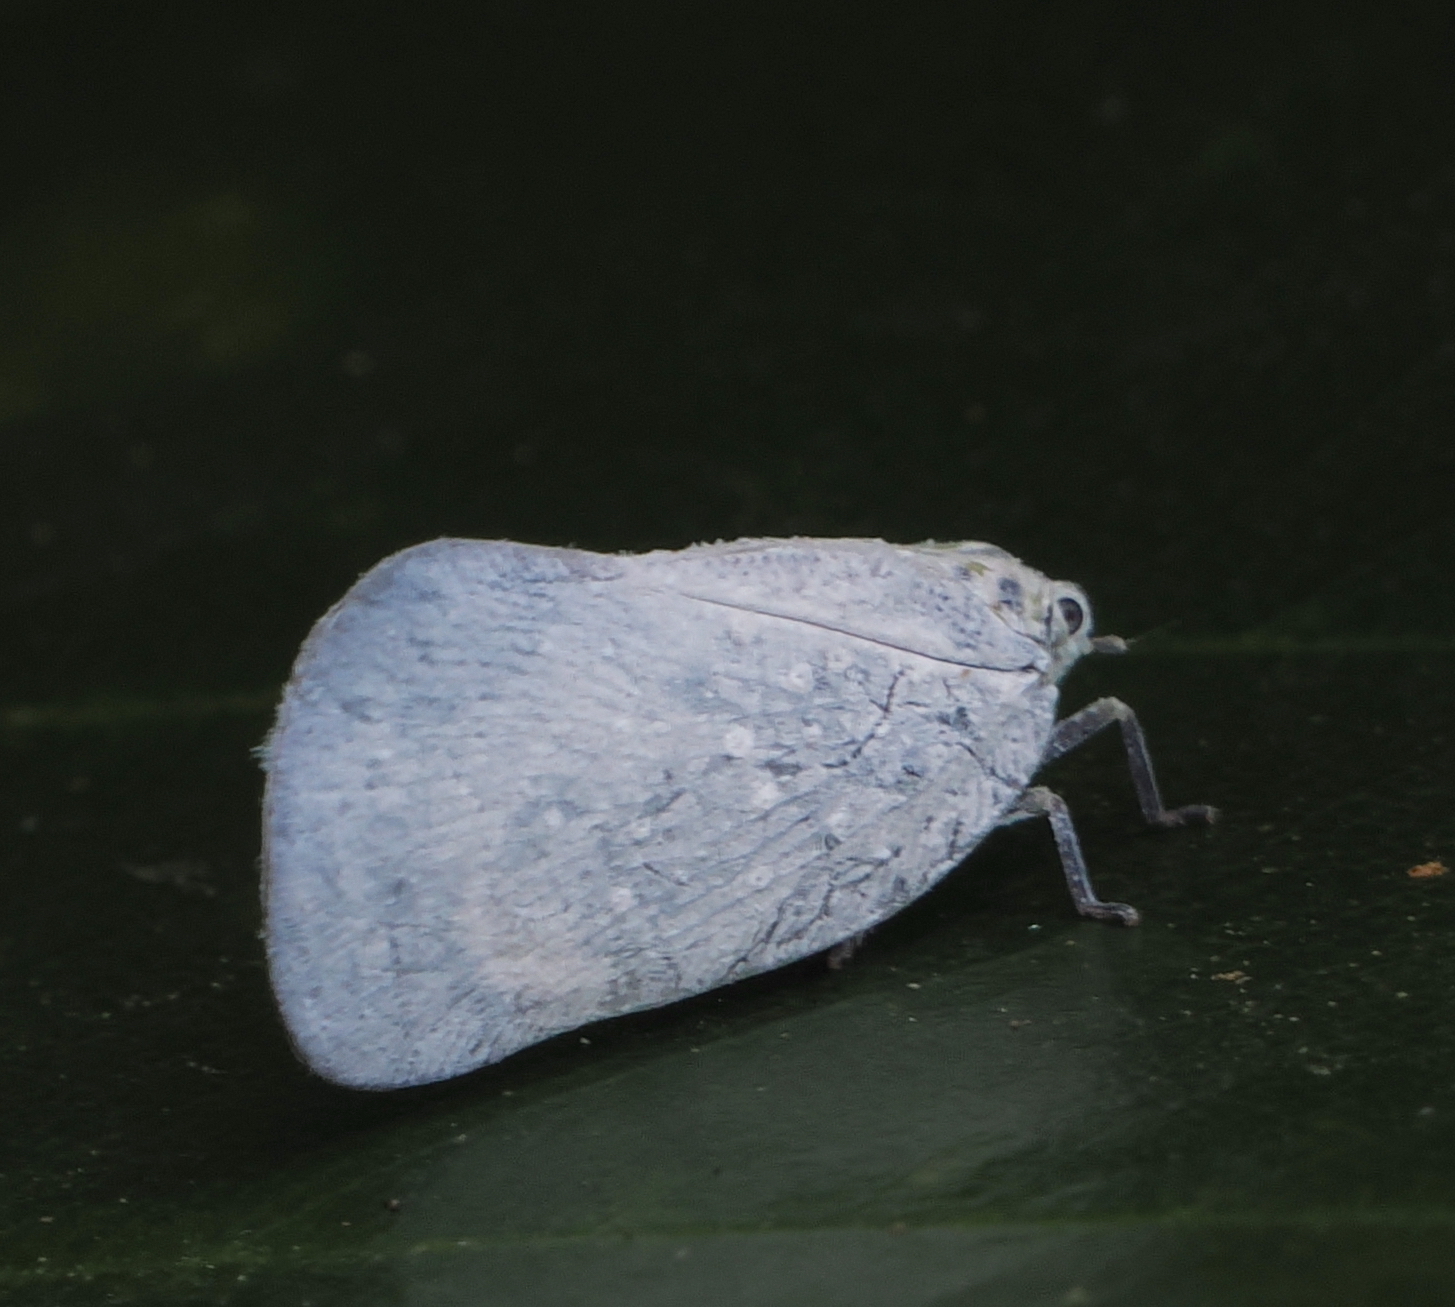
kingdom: Animalia
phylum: Arthropoda
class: Insecta
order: Hemiptera
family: Flatidae
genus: Bythopsyrna
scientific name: Bythopsyrna tineoides
